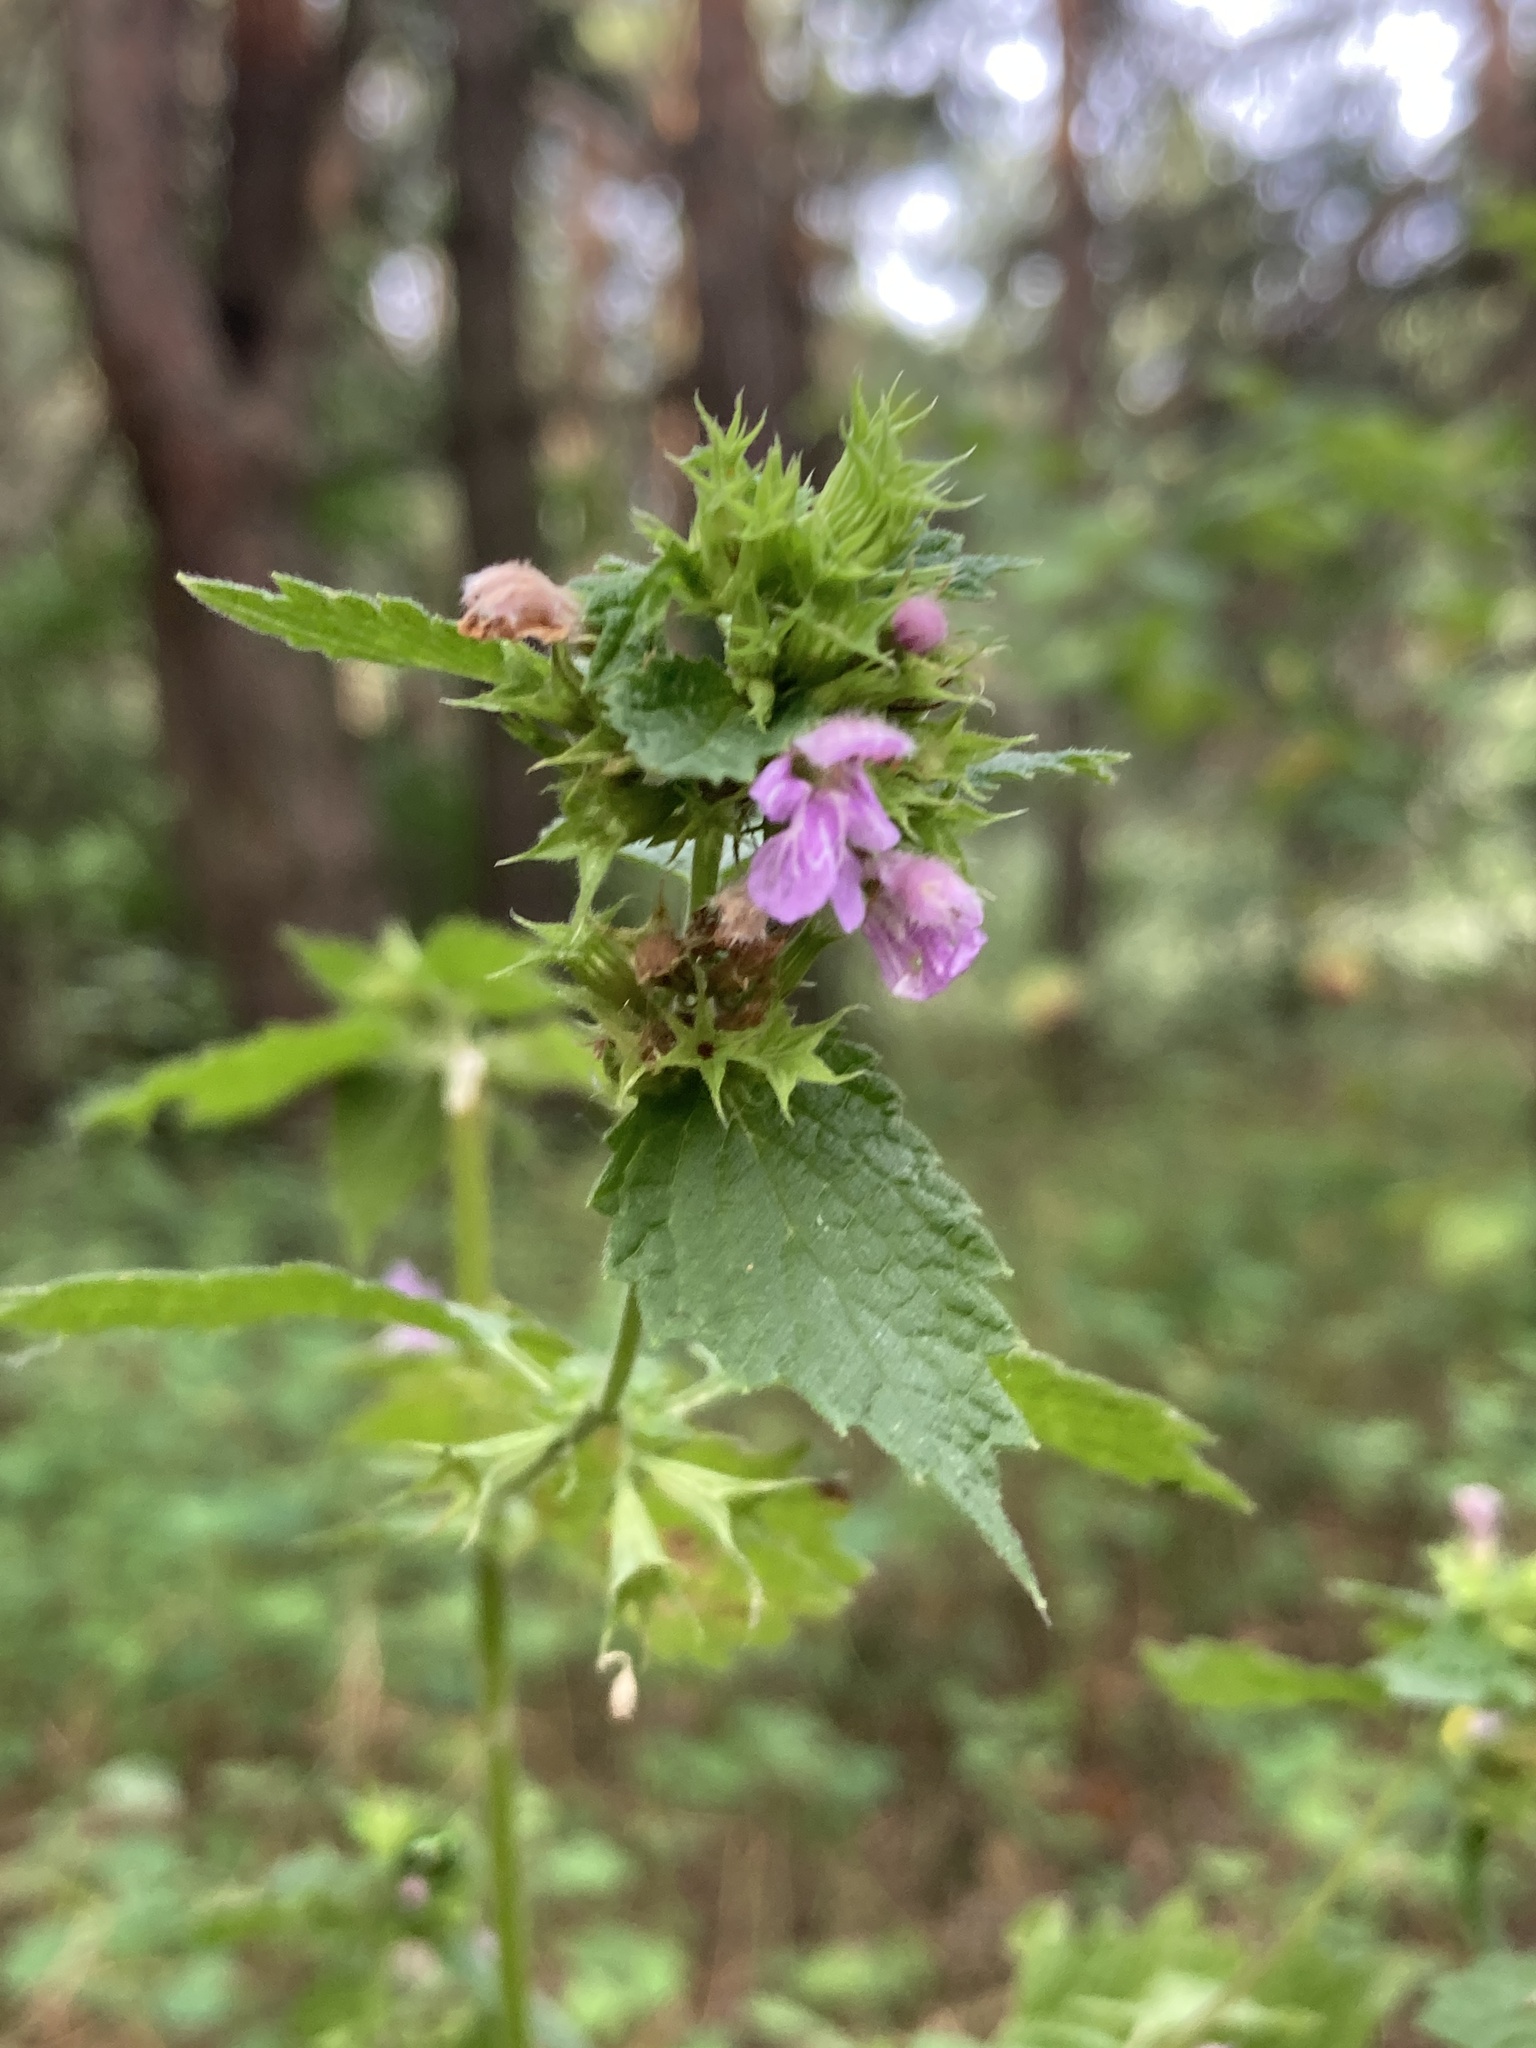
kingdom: Plantae
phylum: Tracheophyta
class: Magnoliopsida
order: Lamiales
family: Lamiaceae
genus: Ballota
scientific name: Ballota nigra
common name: Black horehound
